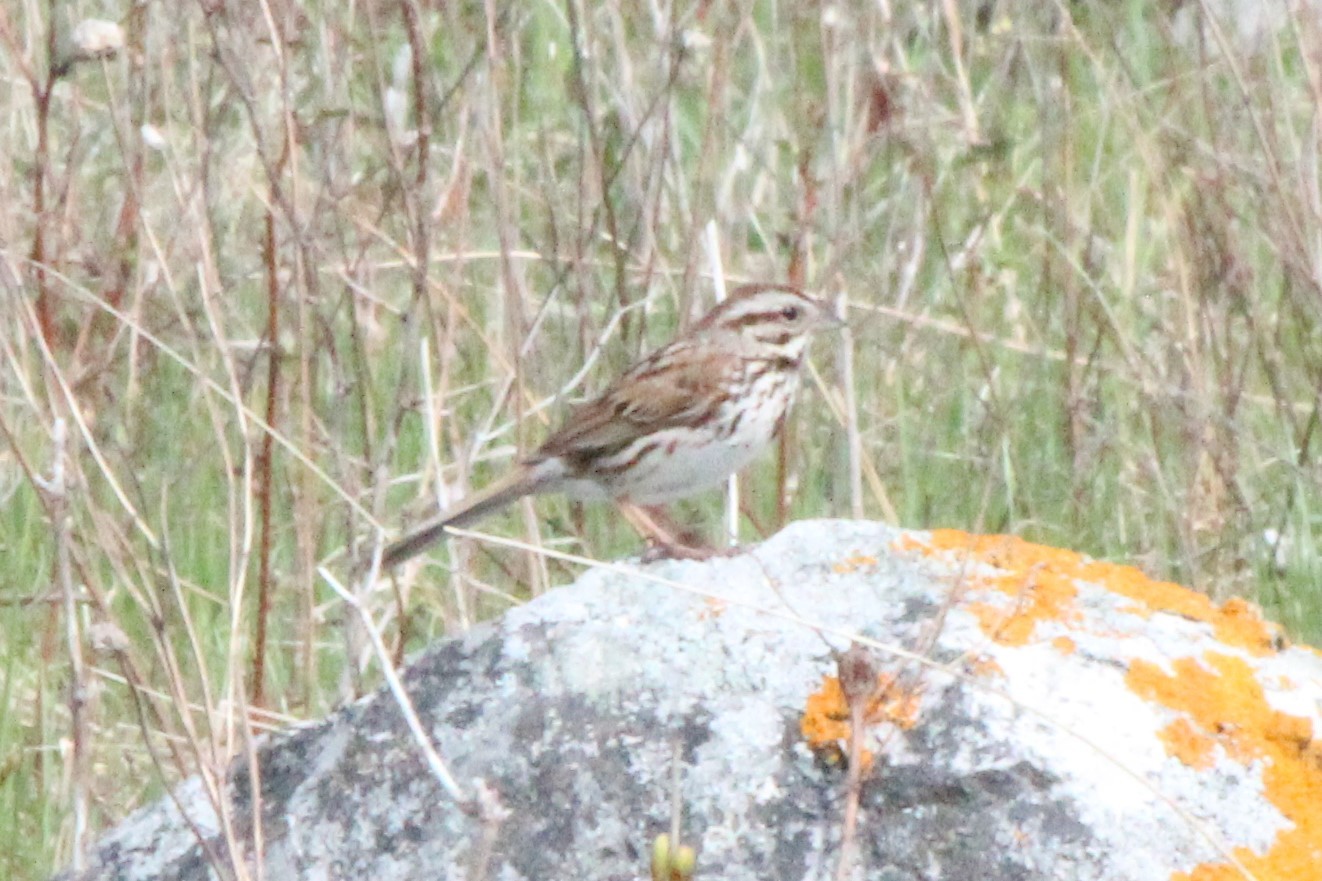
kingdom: Animalia
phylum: Chordata
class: Aves
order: Passeriformes
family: Passerellidae
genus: Melospiza
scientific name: Melospiza melodia
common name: Song sparrow
